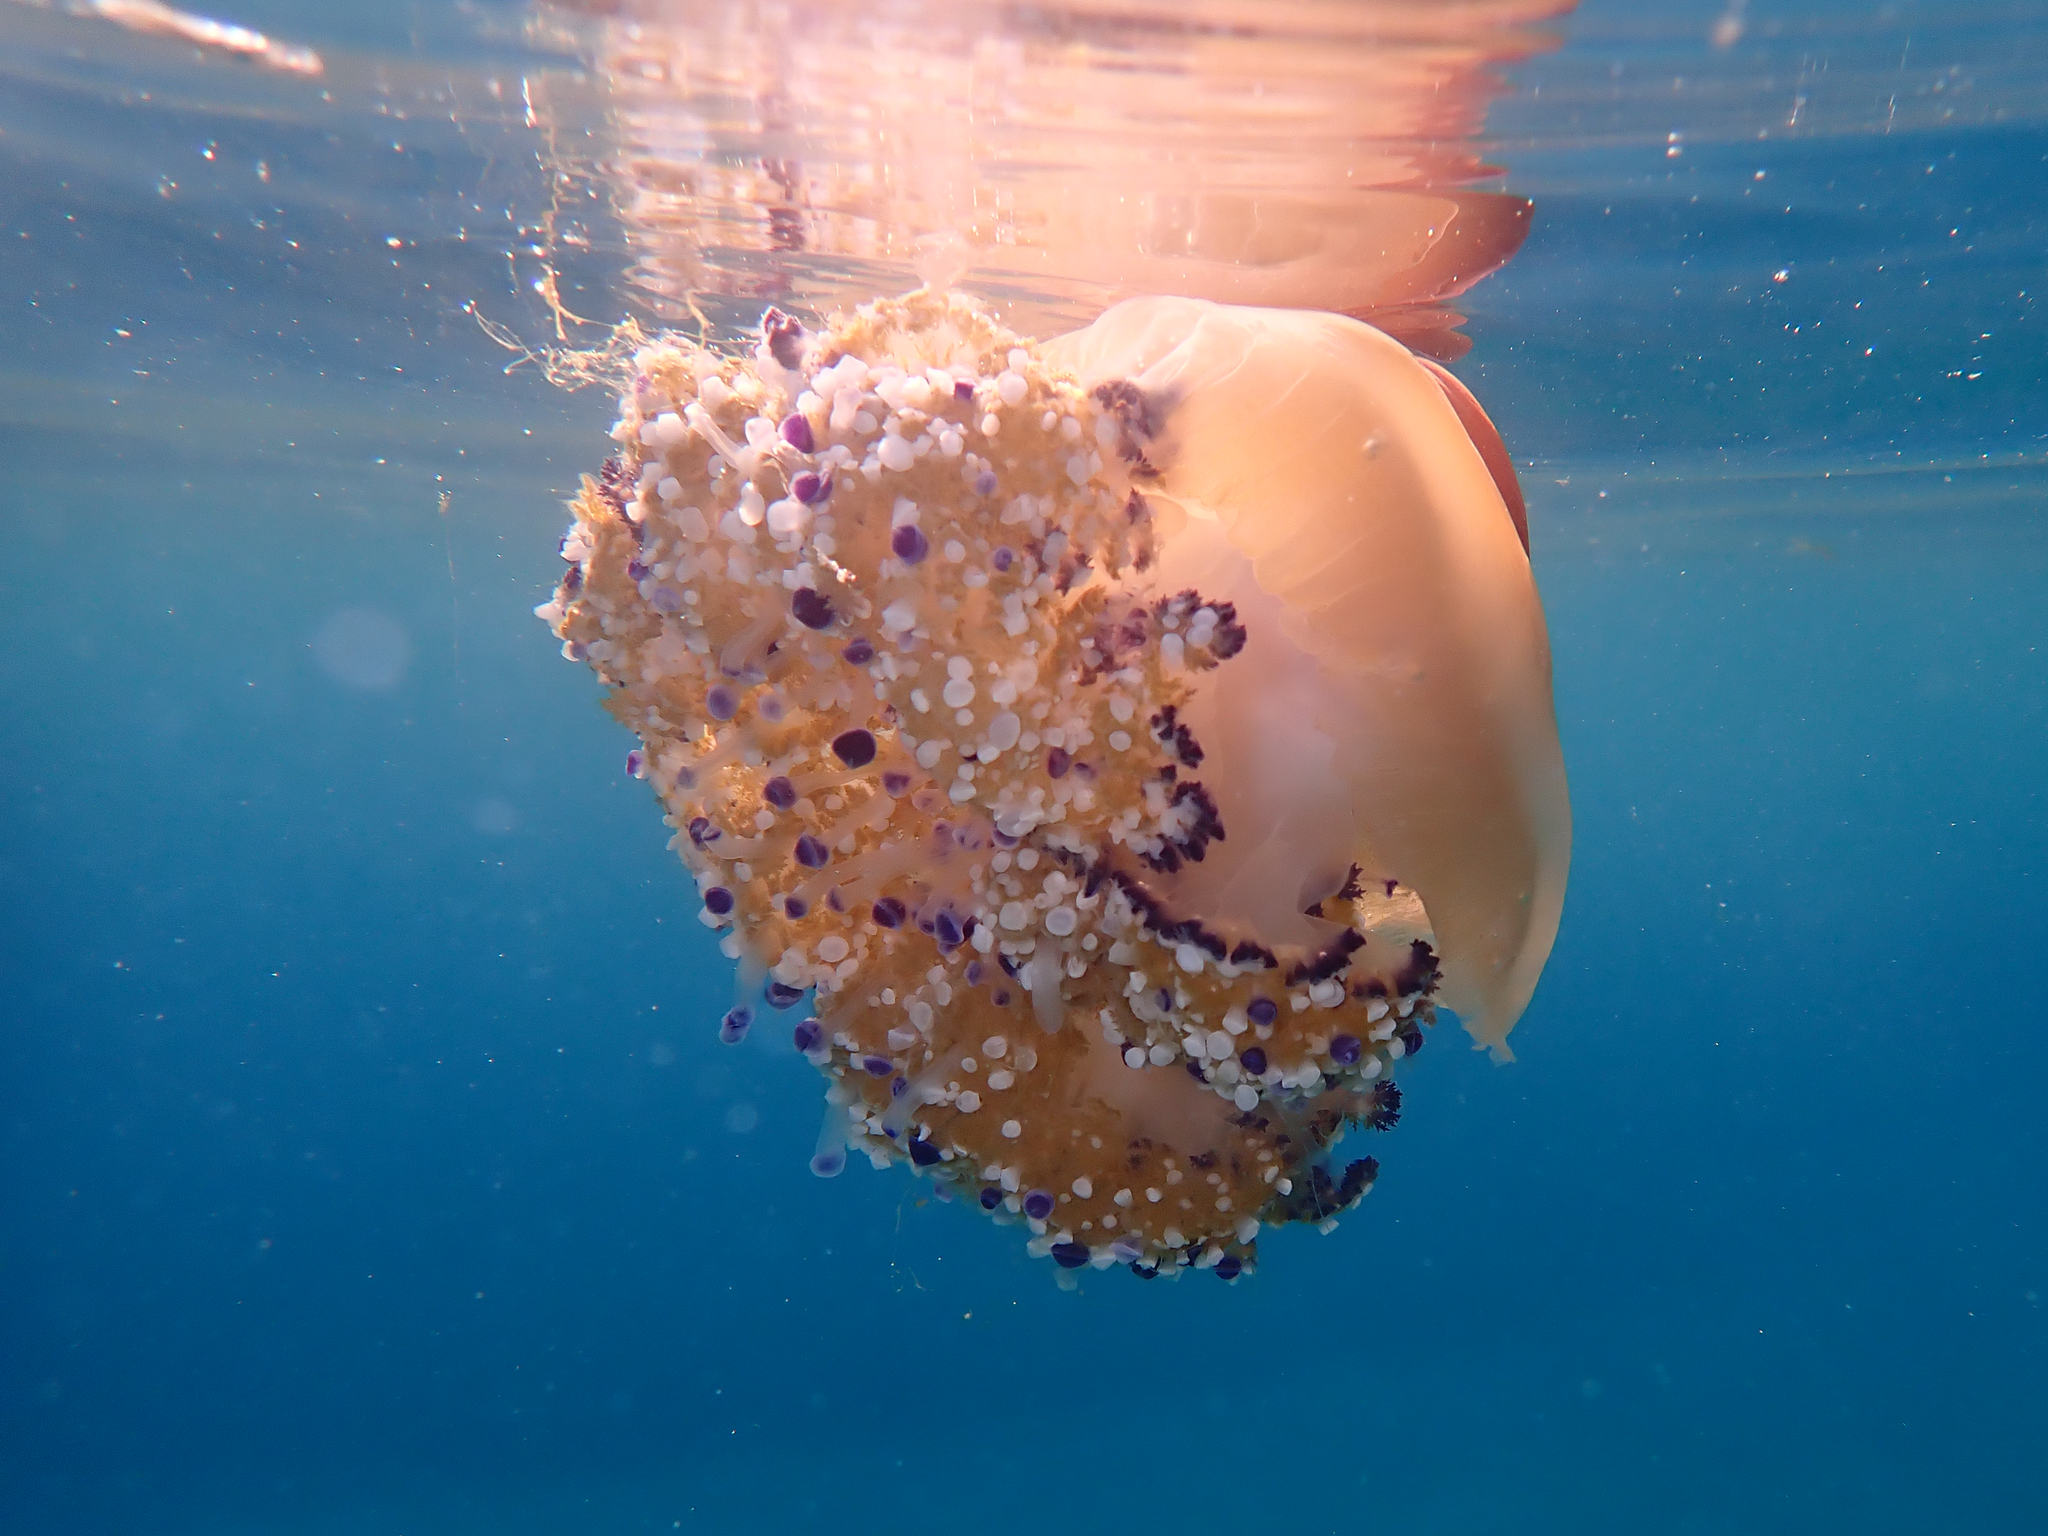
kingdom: Animalia
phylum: Cnidaria
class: Scyphozoa
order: Rhizostomeae
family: Cepheidae
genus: Cotylorhiza
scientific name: Cotylorhiza tuberculata
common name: Mediterranean jelly
